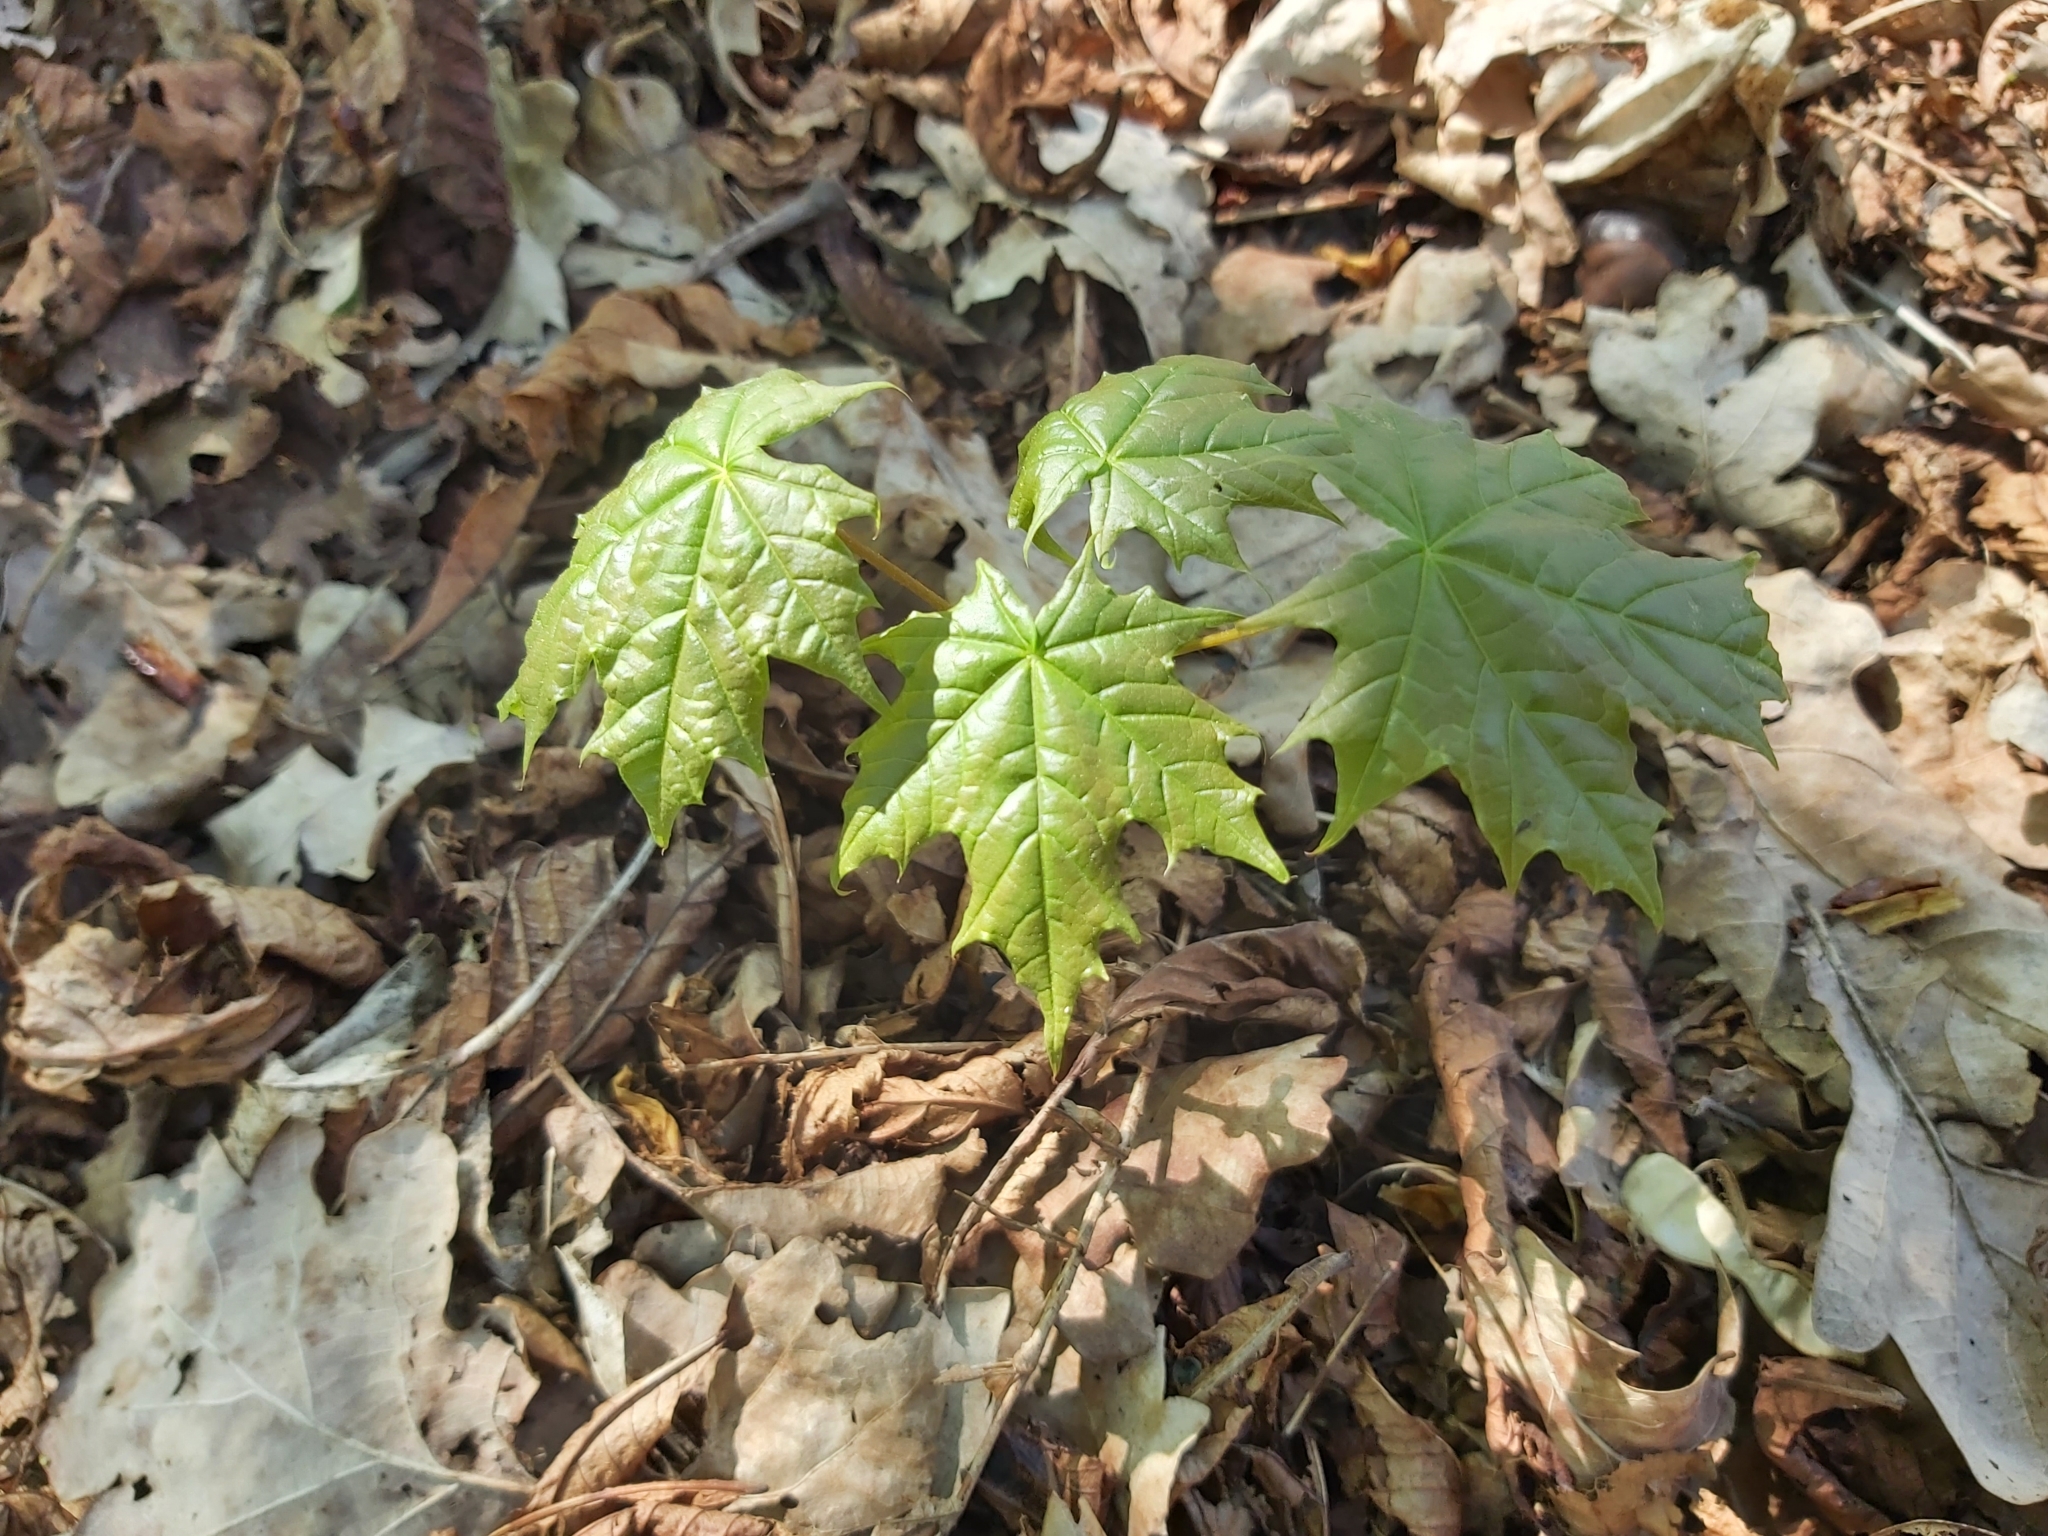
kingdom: Plantae
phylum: Tracheophyta
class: Magnoliopsida
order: Sapindales
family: Sapindaceae
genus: Acer
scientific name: Acer platanoides
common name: Norway maple
